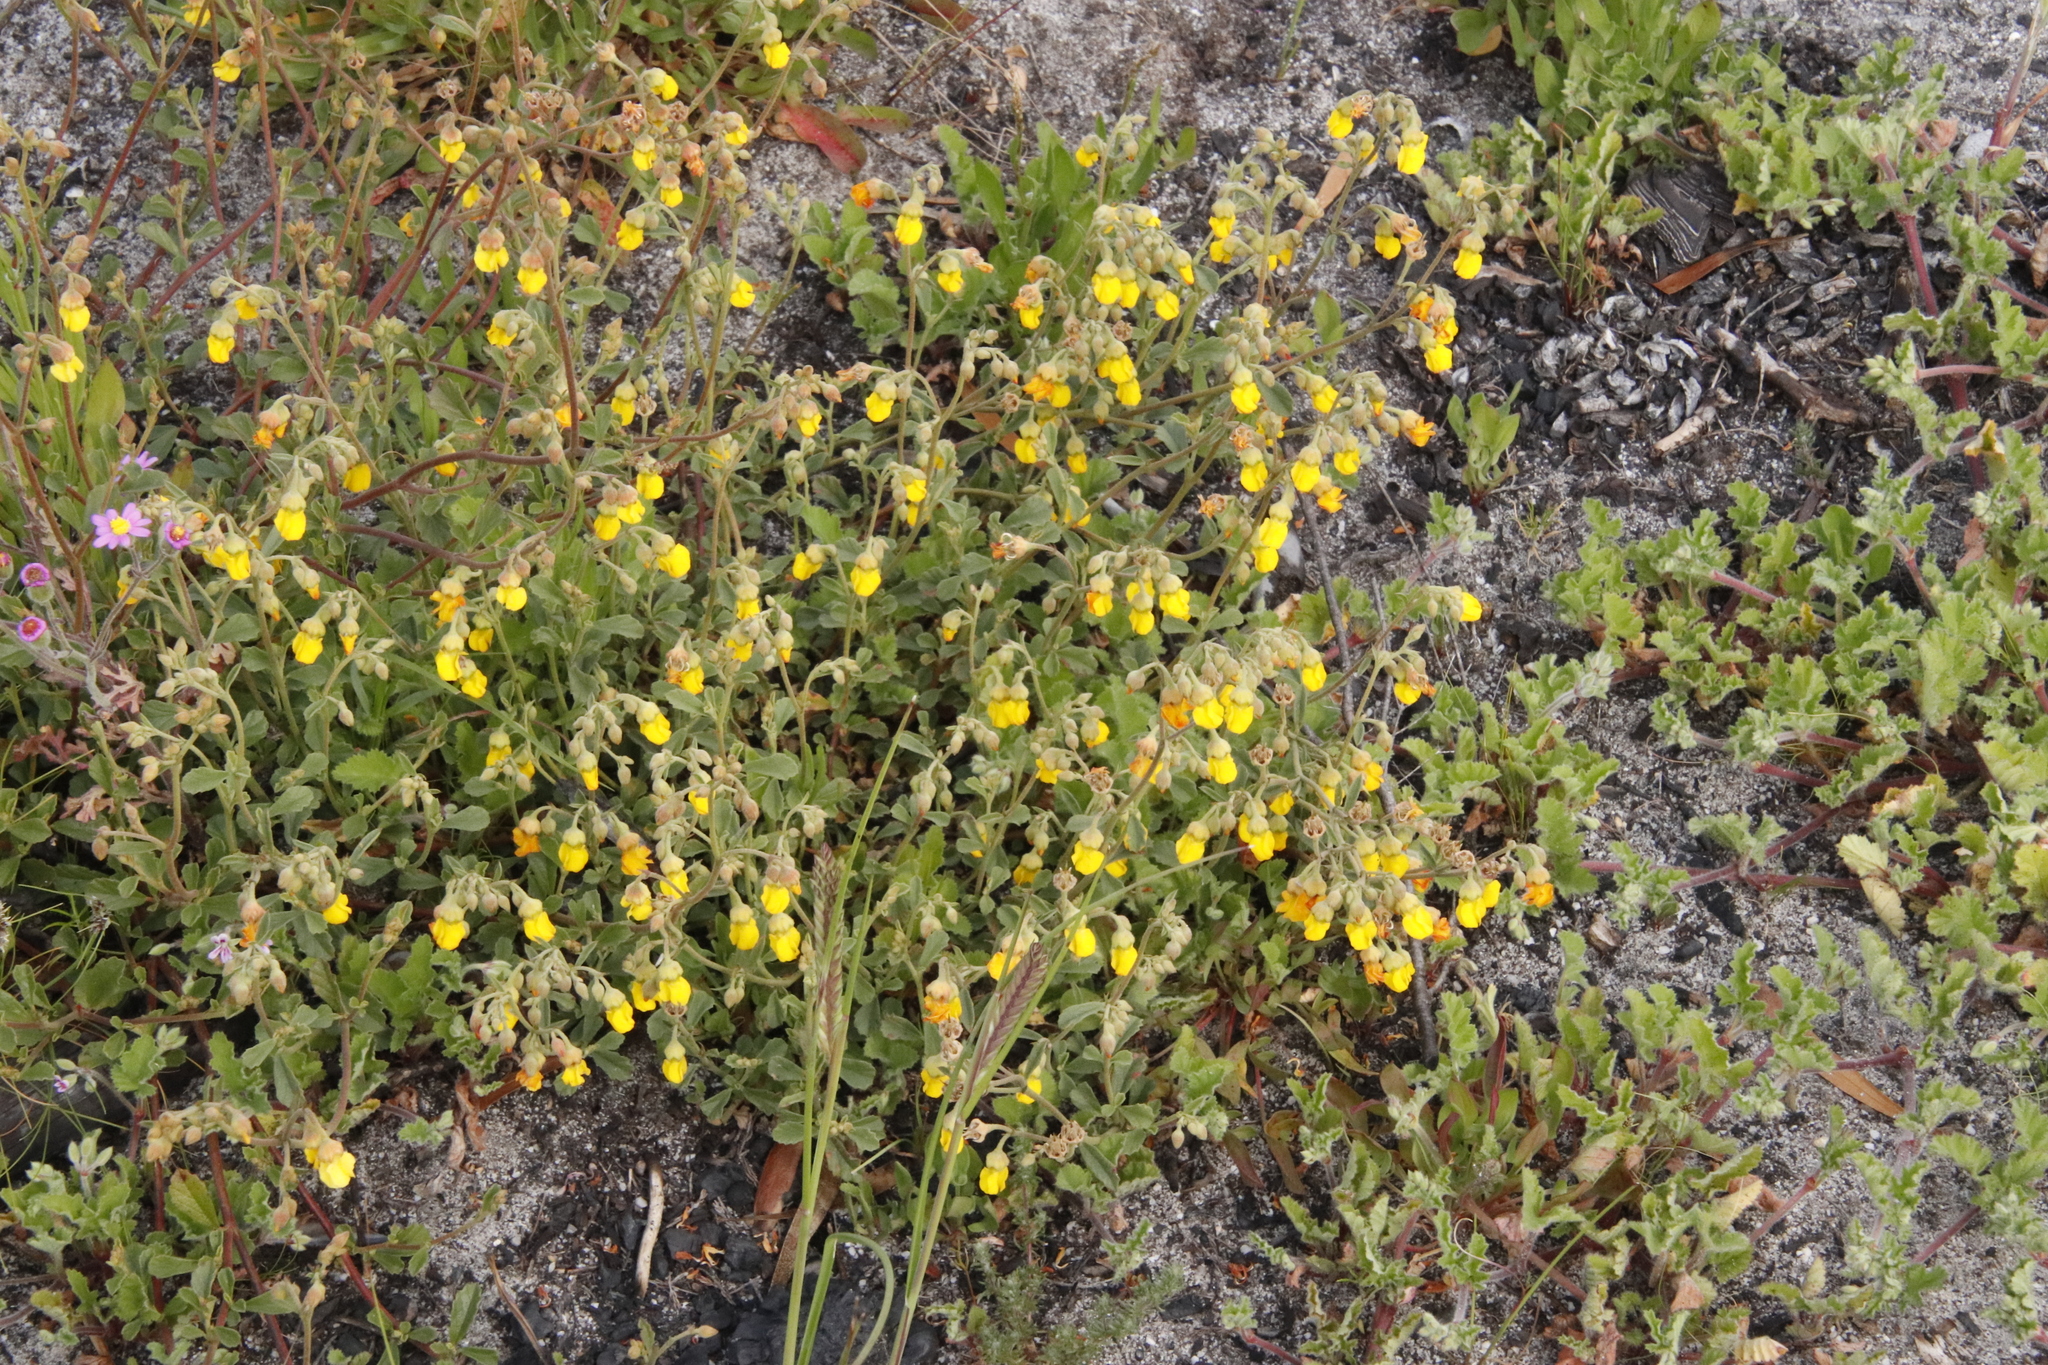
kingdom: Plantae
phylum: Tracheophyta
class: Magnoliopsida
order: Malvales
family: Malvaceae
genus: Hermannia
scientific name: Hermannia multiflora
